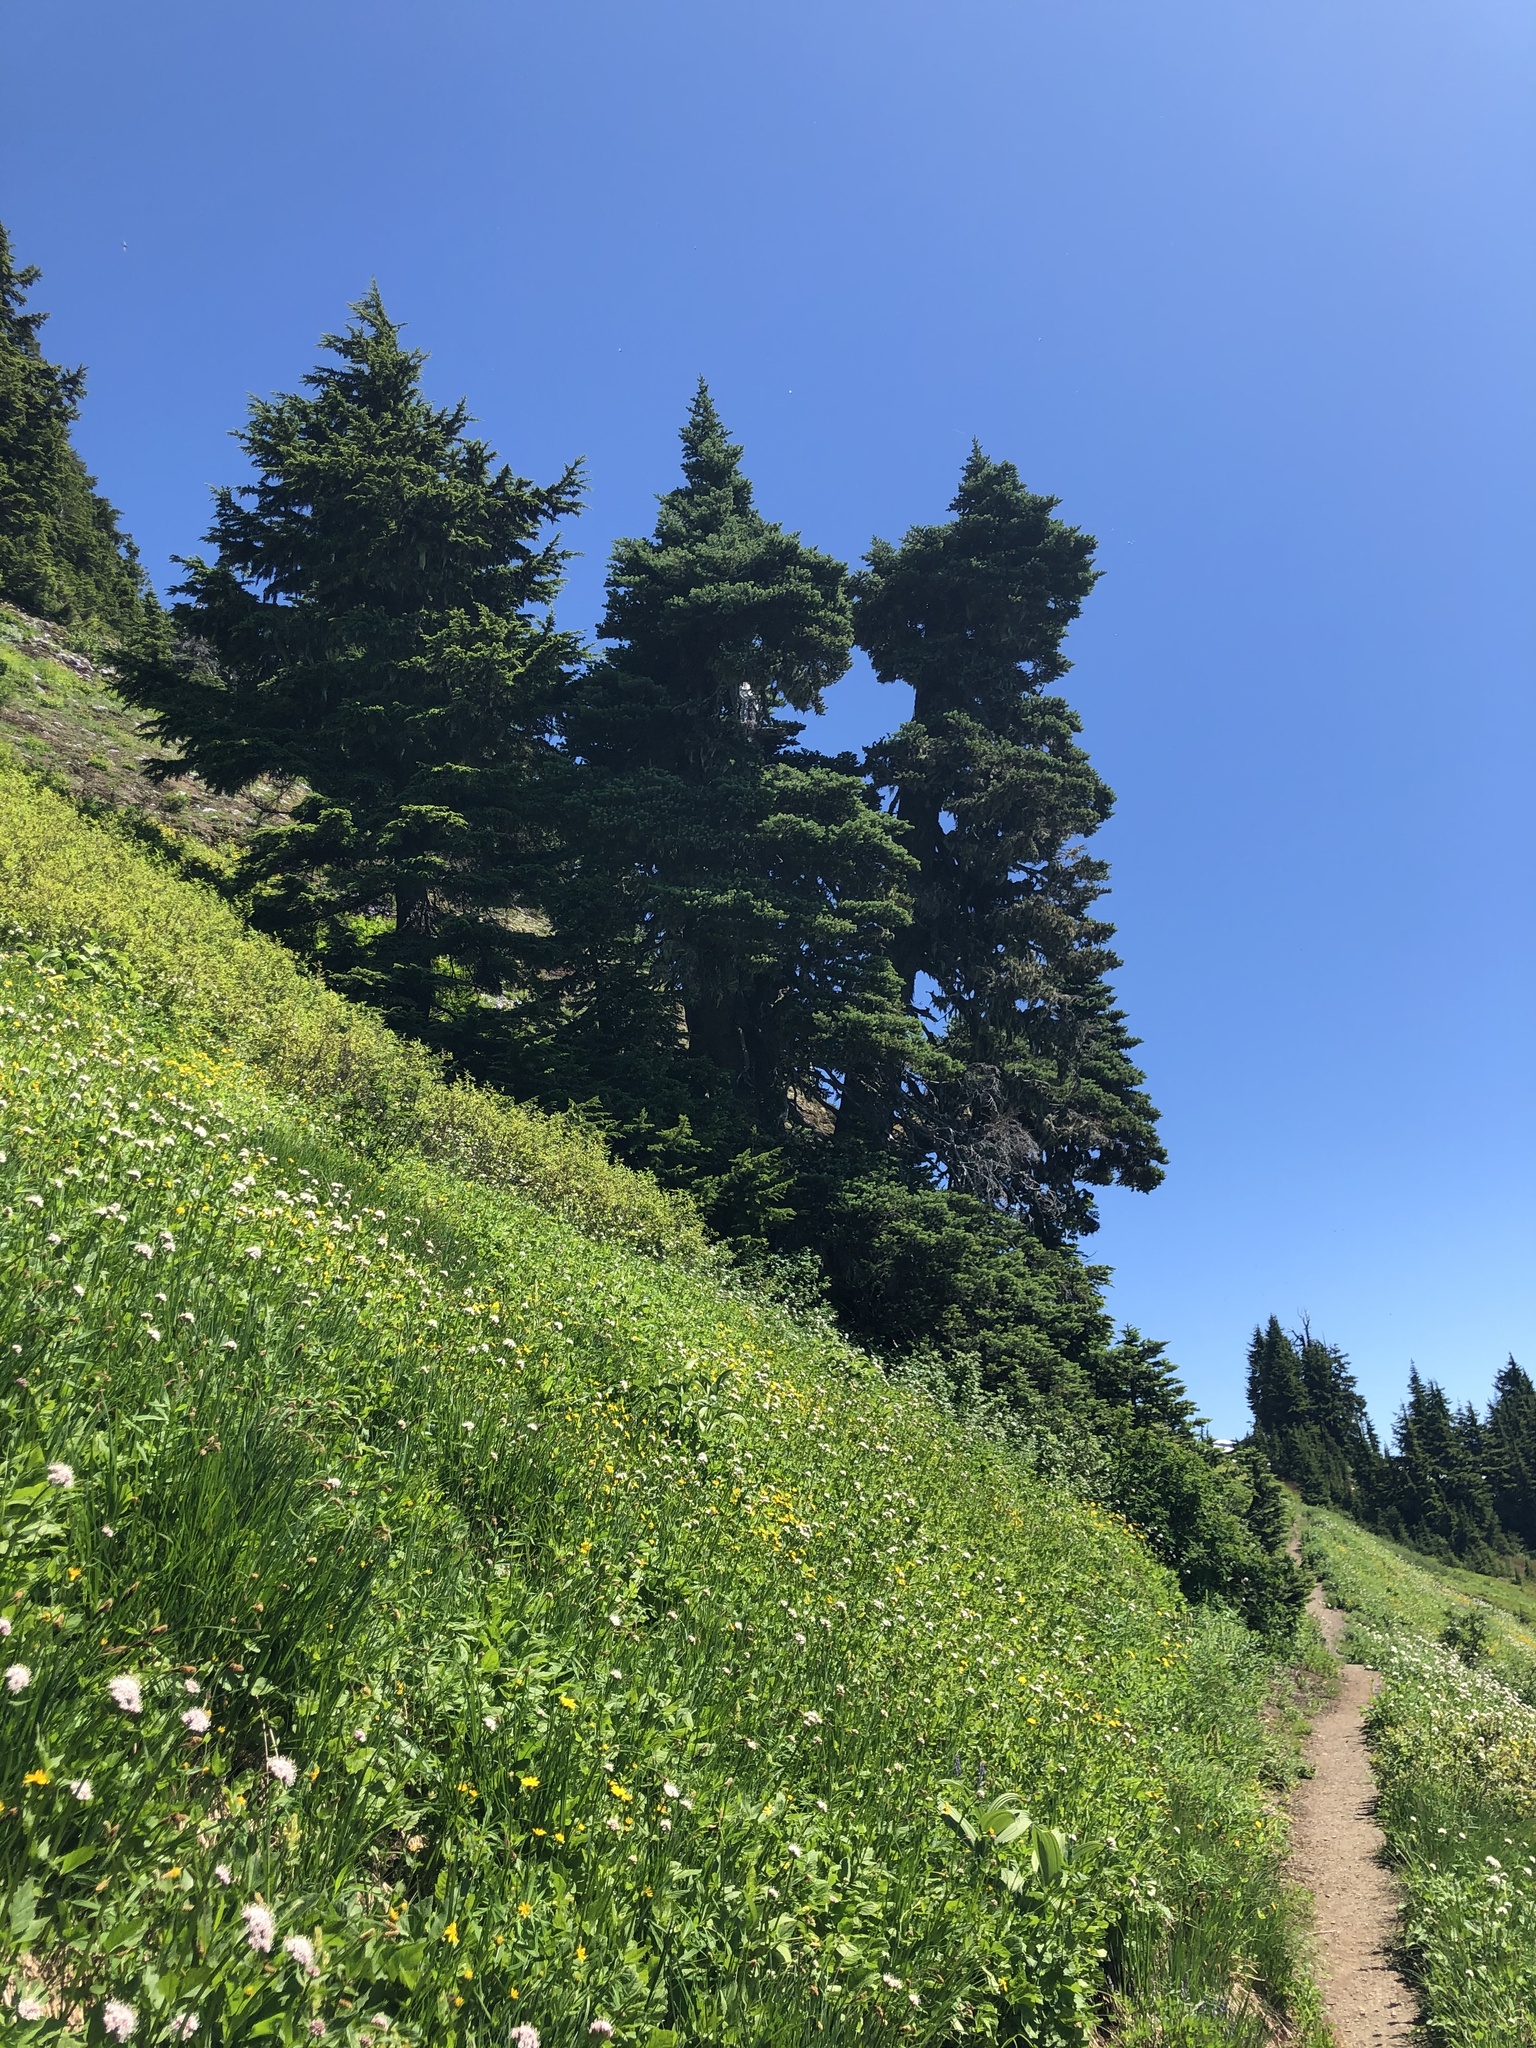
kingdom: Plantae
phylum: Tracheophyta
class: Pinopsida
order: Pinales
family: Pinaceae
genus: Abies
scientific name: Abies lasiocarpa
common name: Subalpine fir
